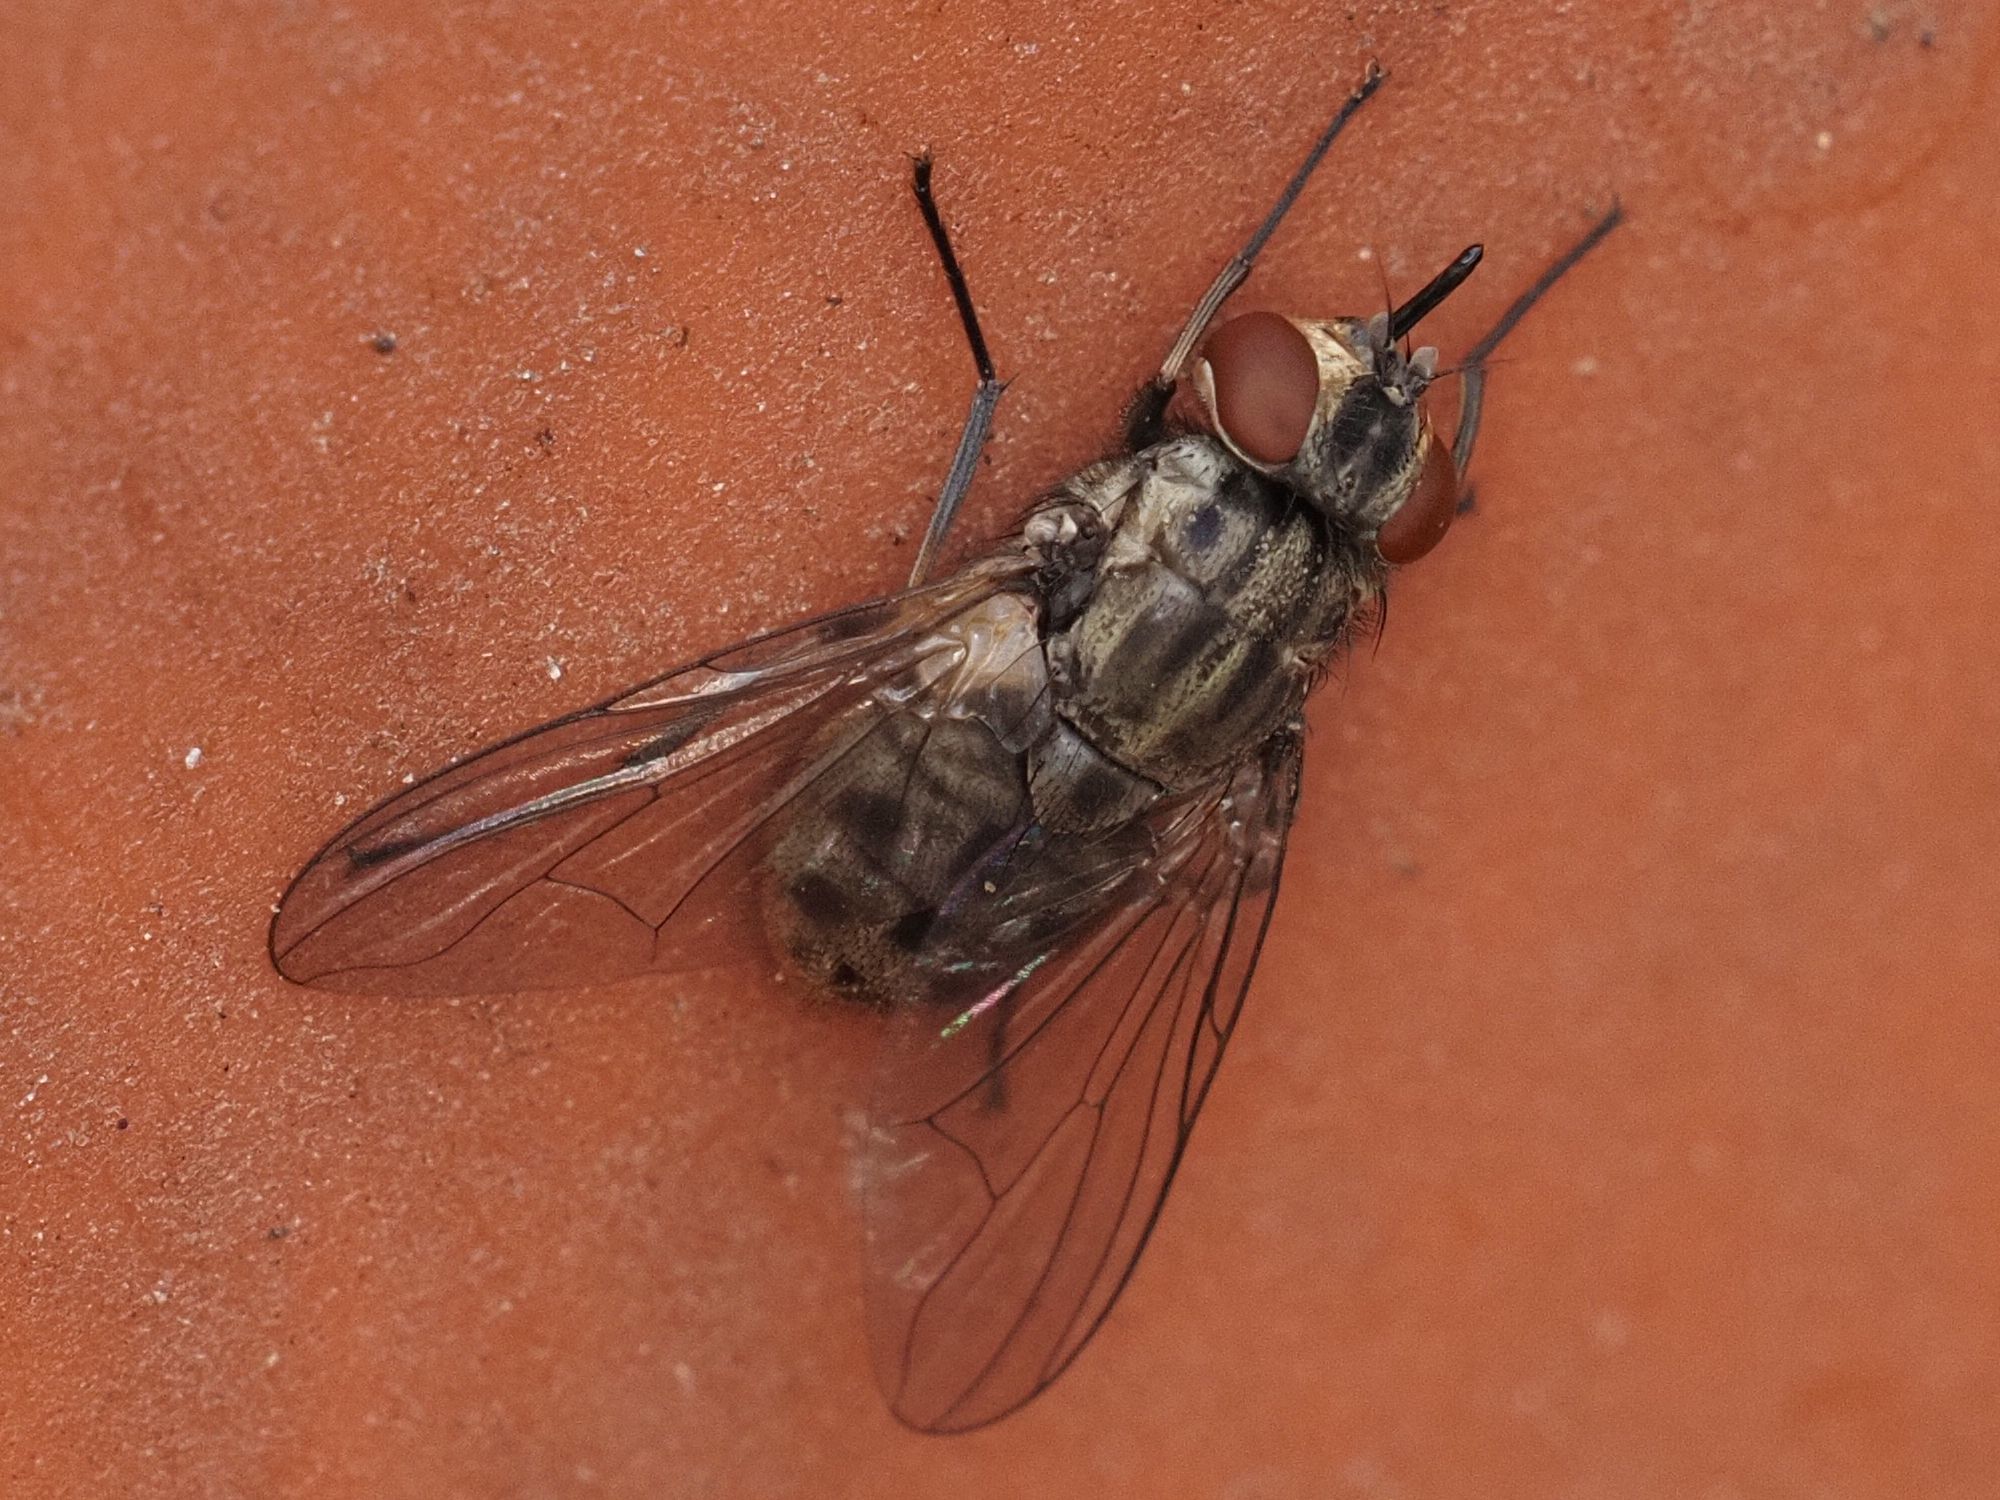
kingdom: Animalia
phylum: Arthropoda
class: Insecta
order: Diptera
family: Muscidae
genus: Stomoxys
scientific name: Stomoxys calcitrans
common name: Stable fly
